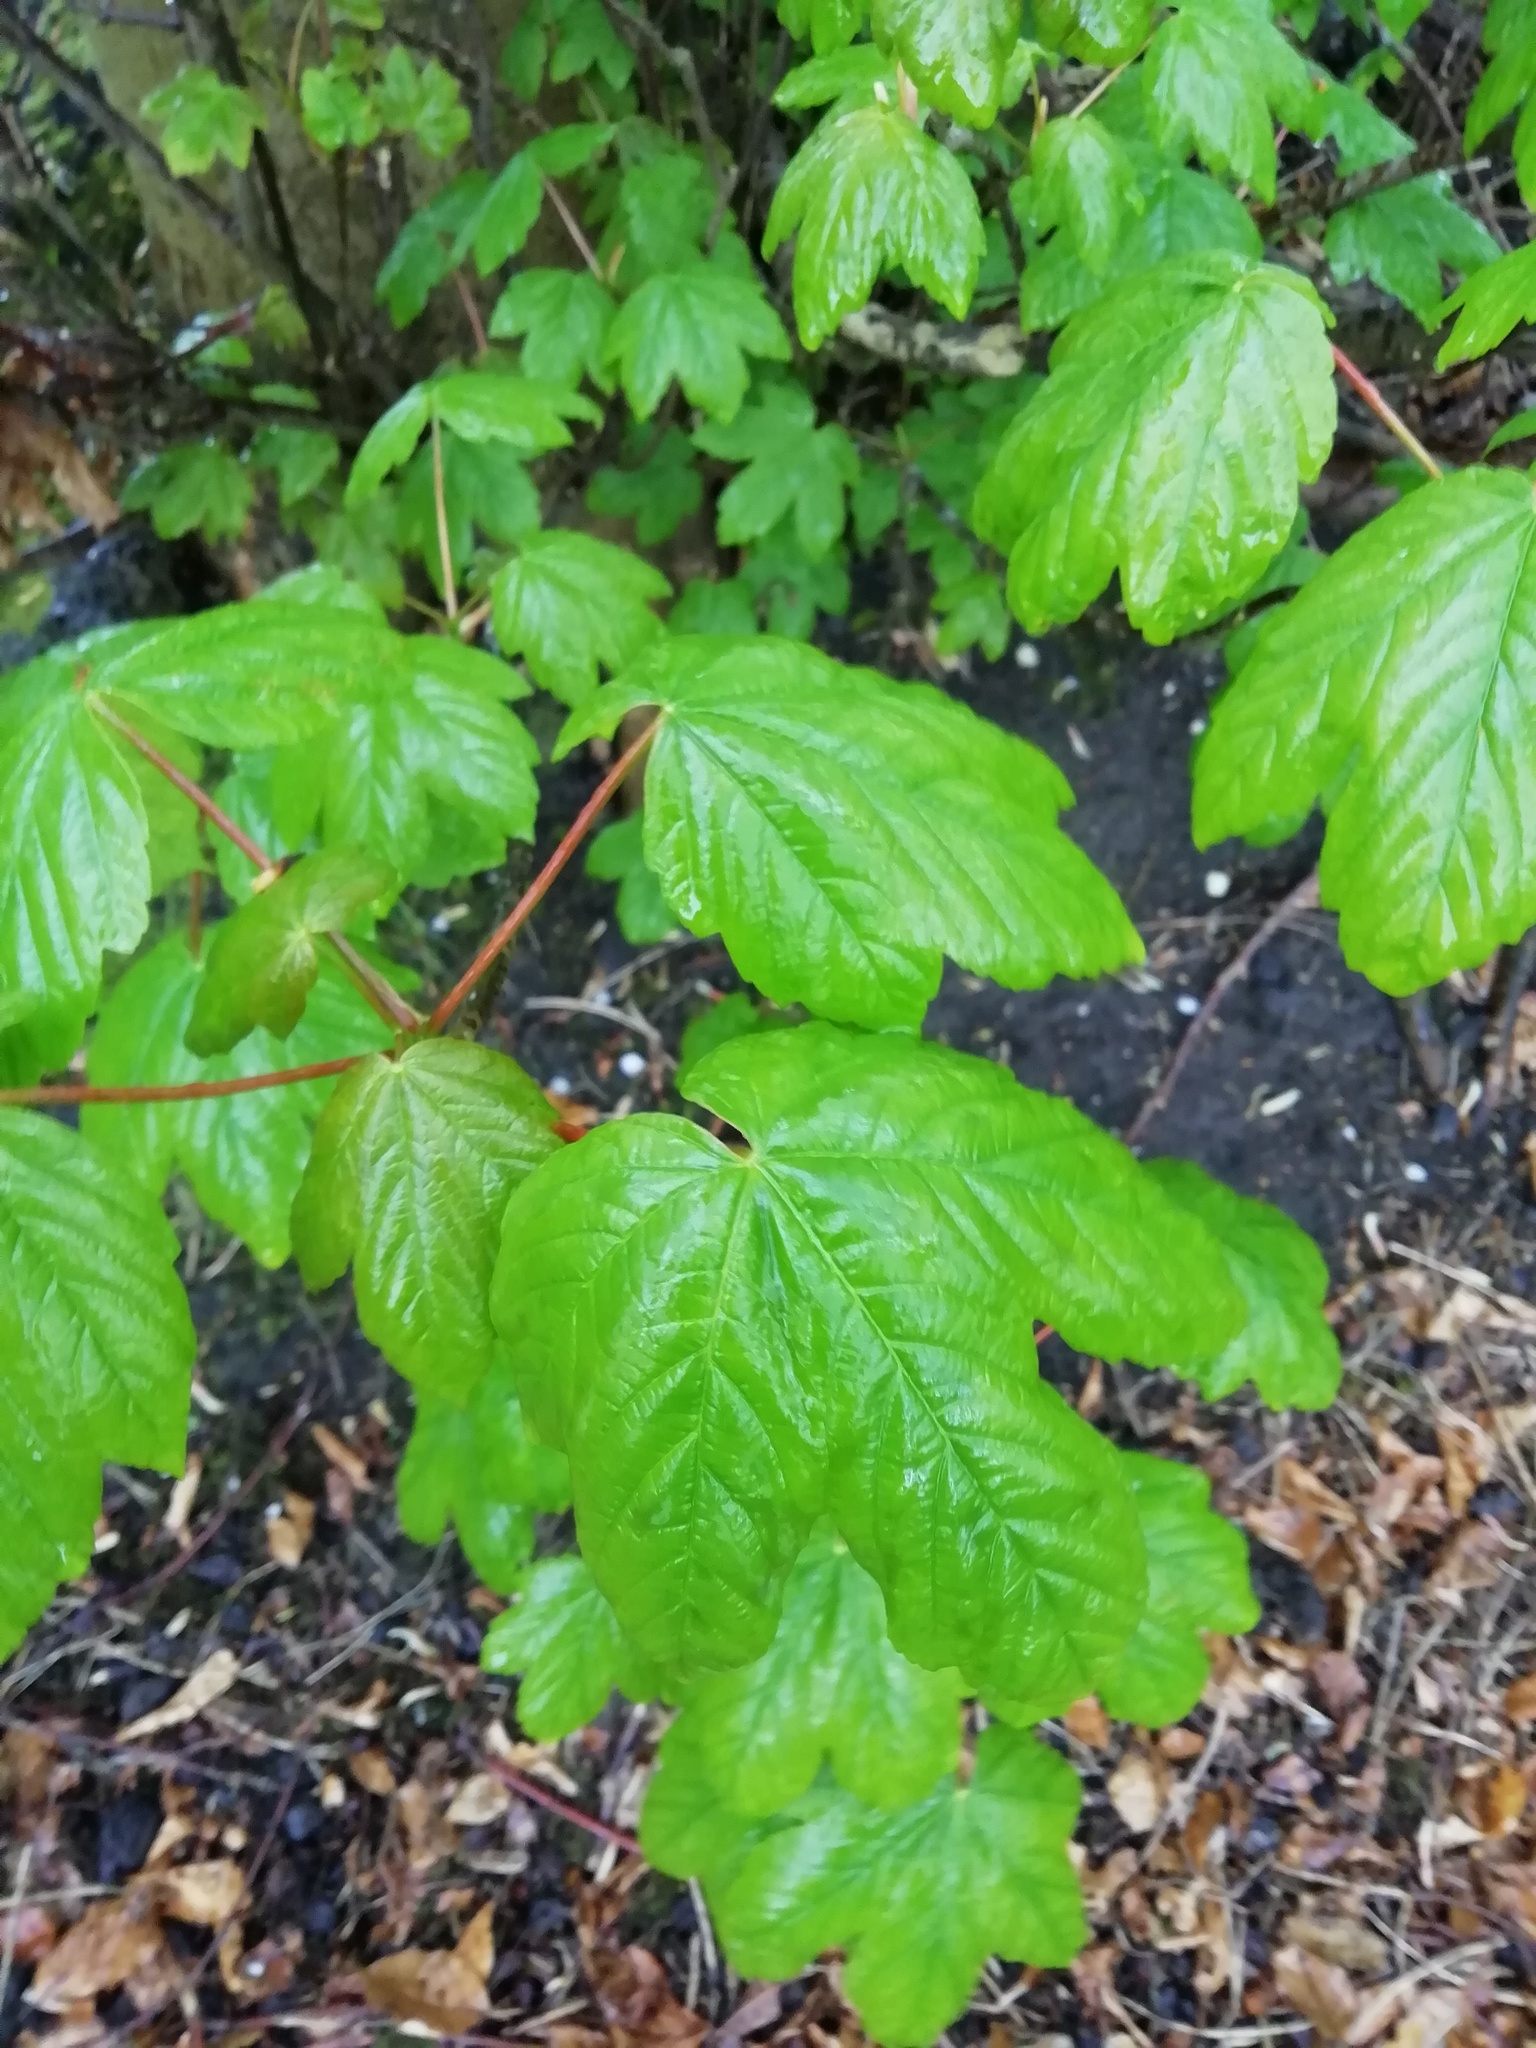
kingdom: Plantae
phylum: Tracheophyta
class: Magnoliopsida
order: Sapindales
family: Sapindaceae
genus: Acer
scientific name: Acer pseudoplatanus
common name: Sycamore
